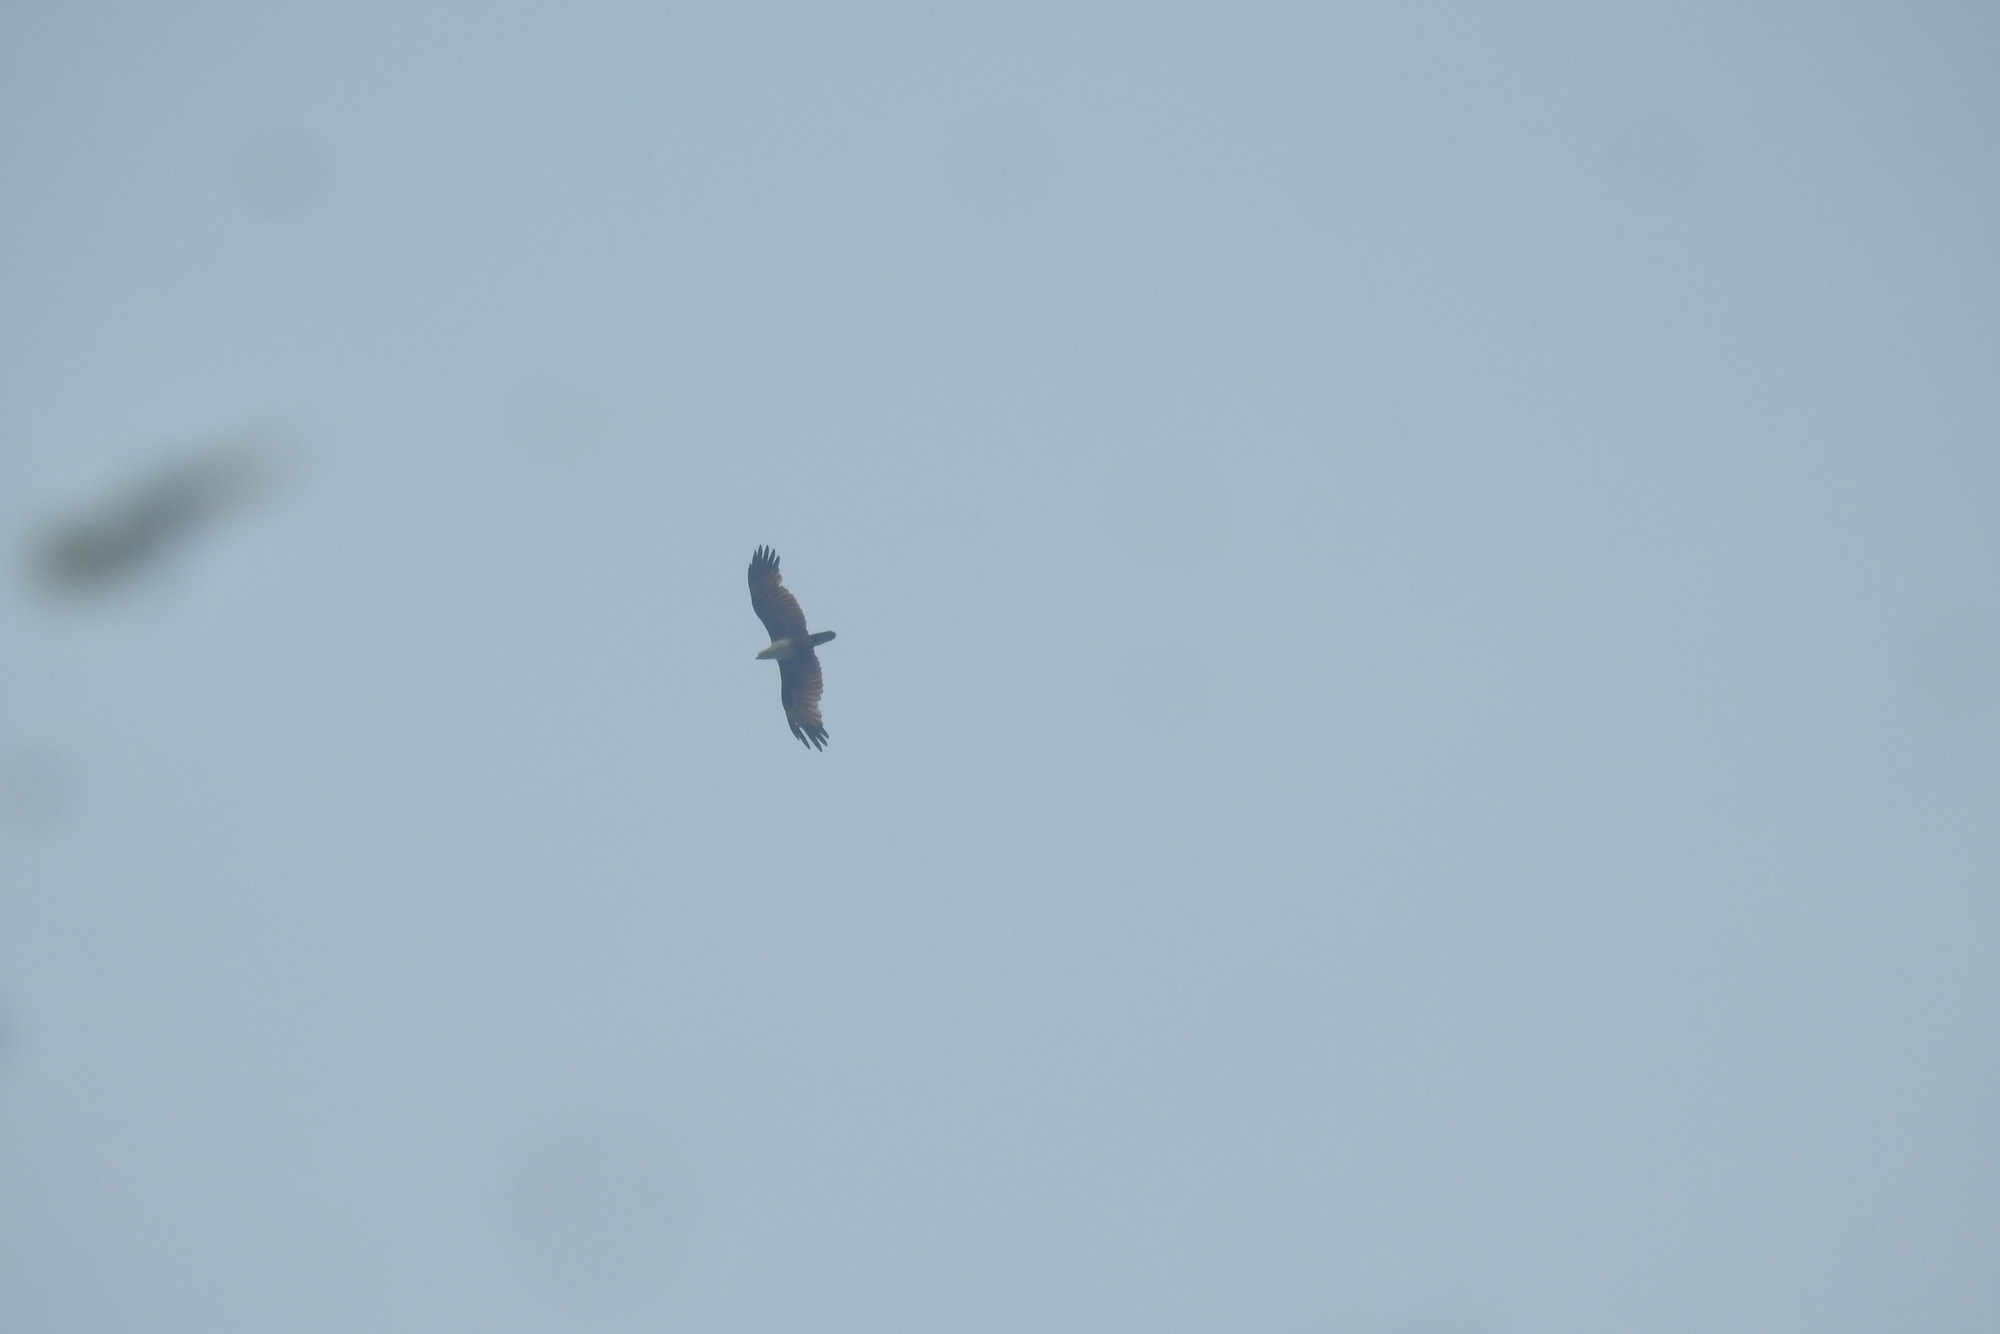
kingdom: Animalia
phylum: Chordata
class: Aves
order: Accipitriformes
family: Accipitridae
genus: Haliastur
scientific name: Haliastur indus
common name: Brahminy kite
